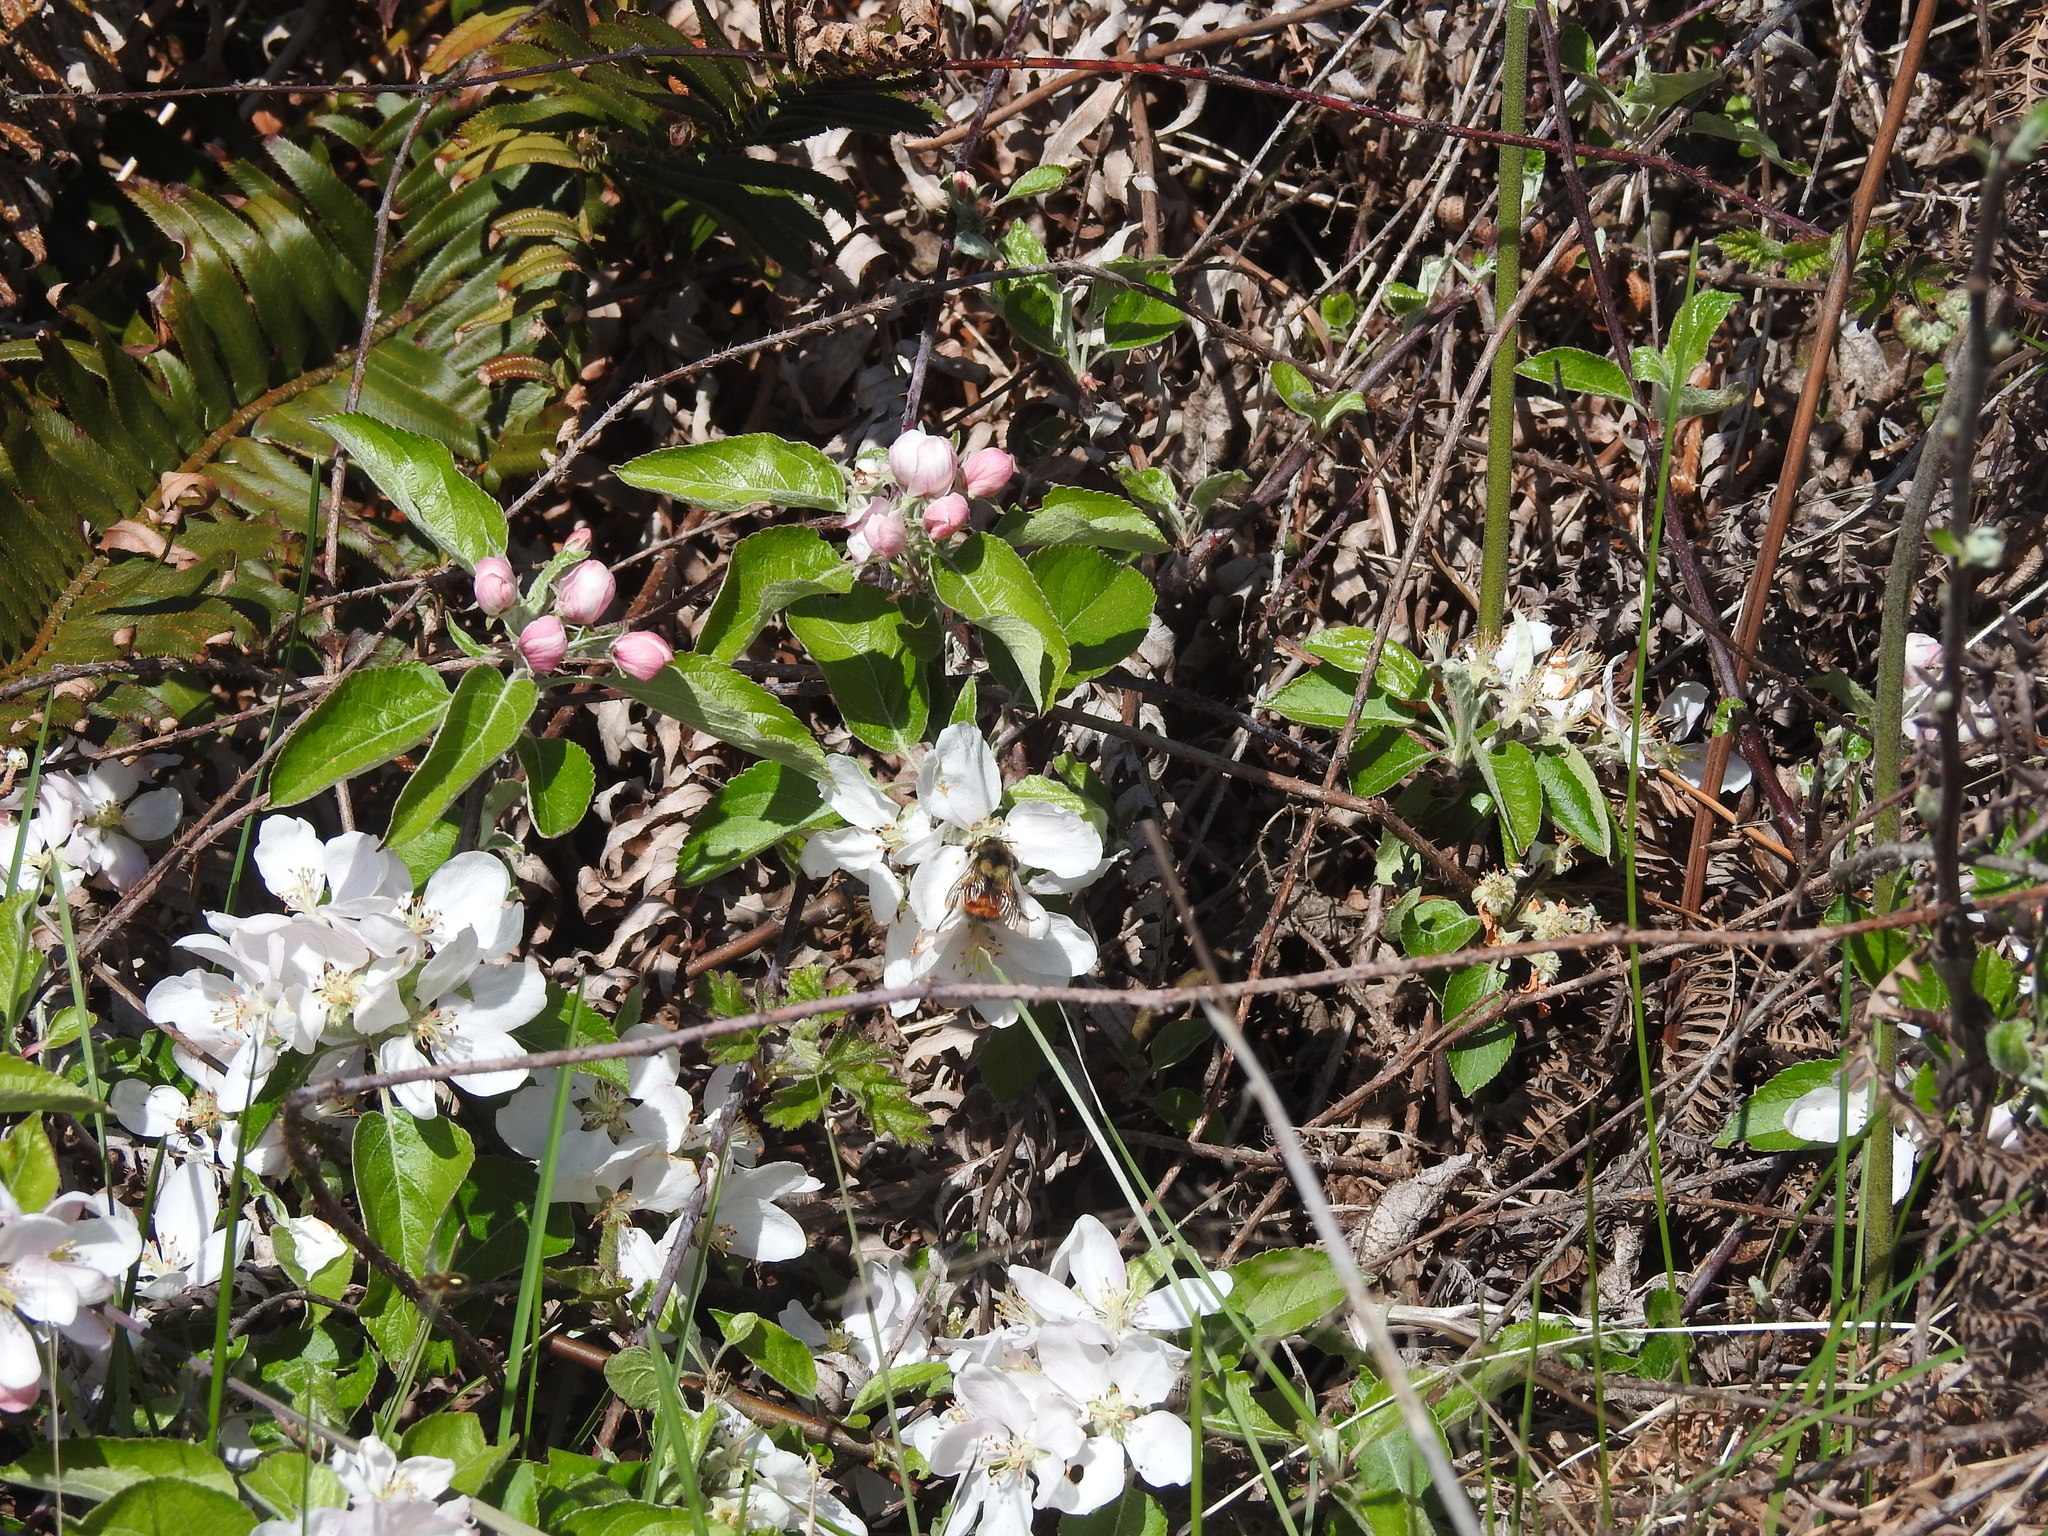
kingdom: Animalia
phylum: Arthropoda
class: Insecta
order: Hymenoptera
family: Apidae
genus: Bombus
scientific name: Bombus melanopygus
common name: Black tail bumble bee
